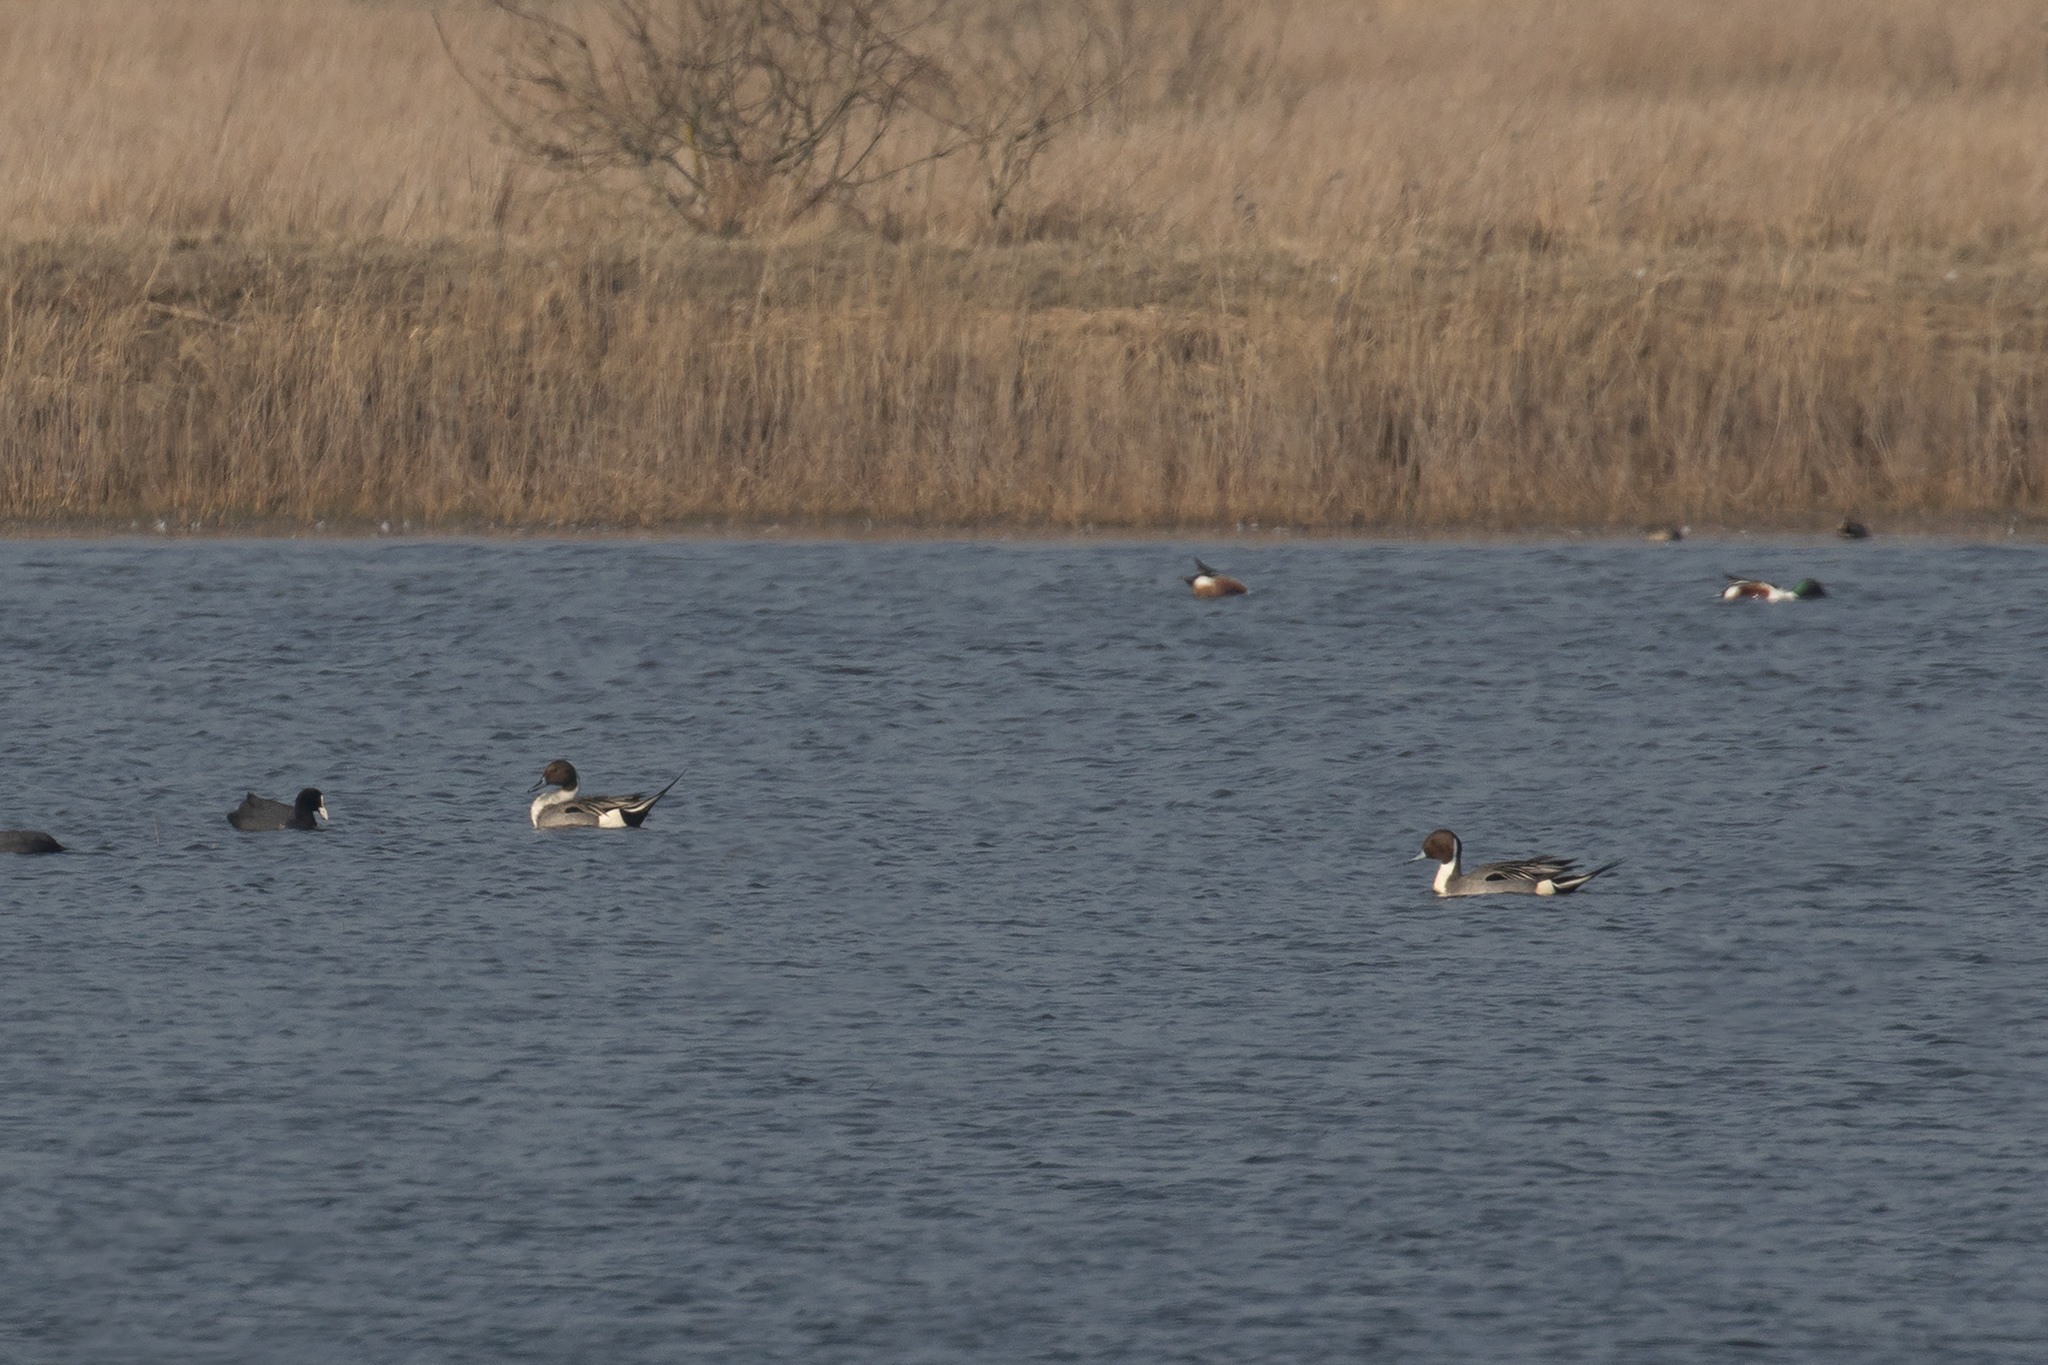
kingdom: Animalia
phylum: Chordata
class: Aves
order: Anseriformes
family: Anatidae
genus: Anas
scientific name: Anas acuta
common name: Northern pintail
